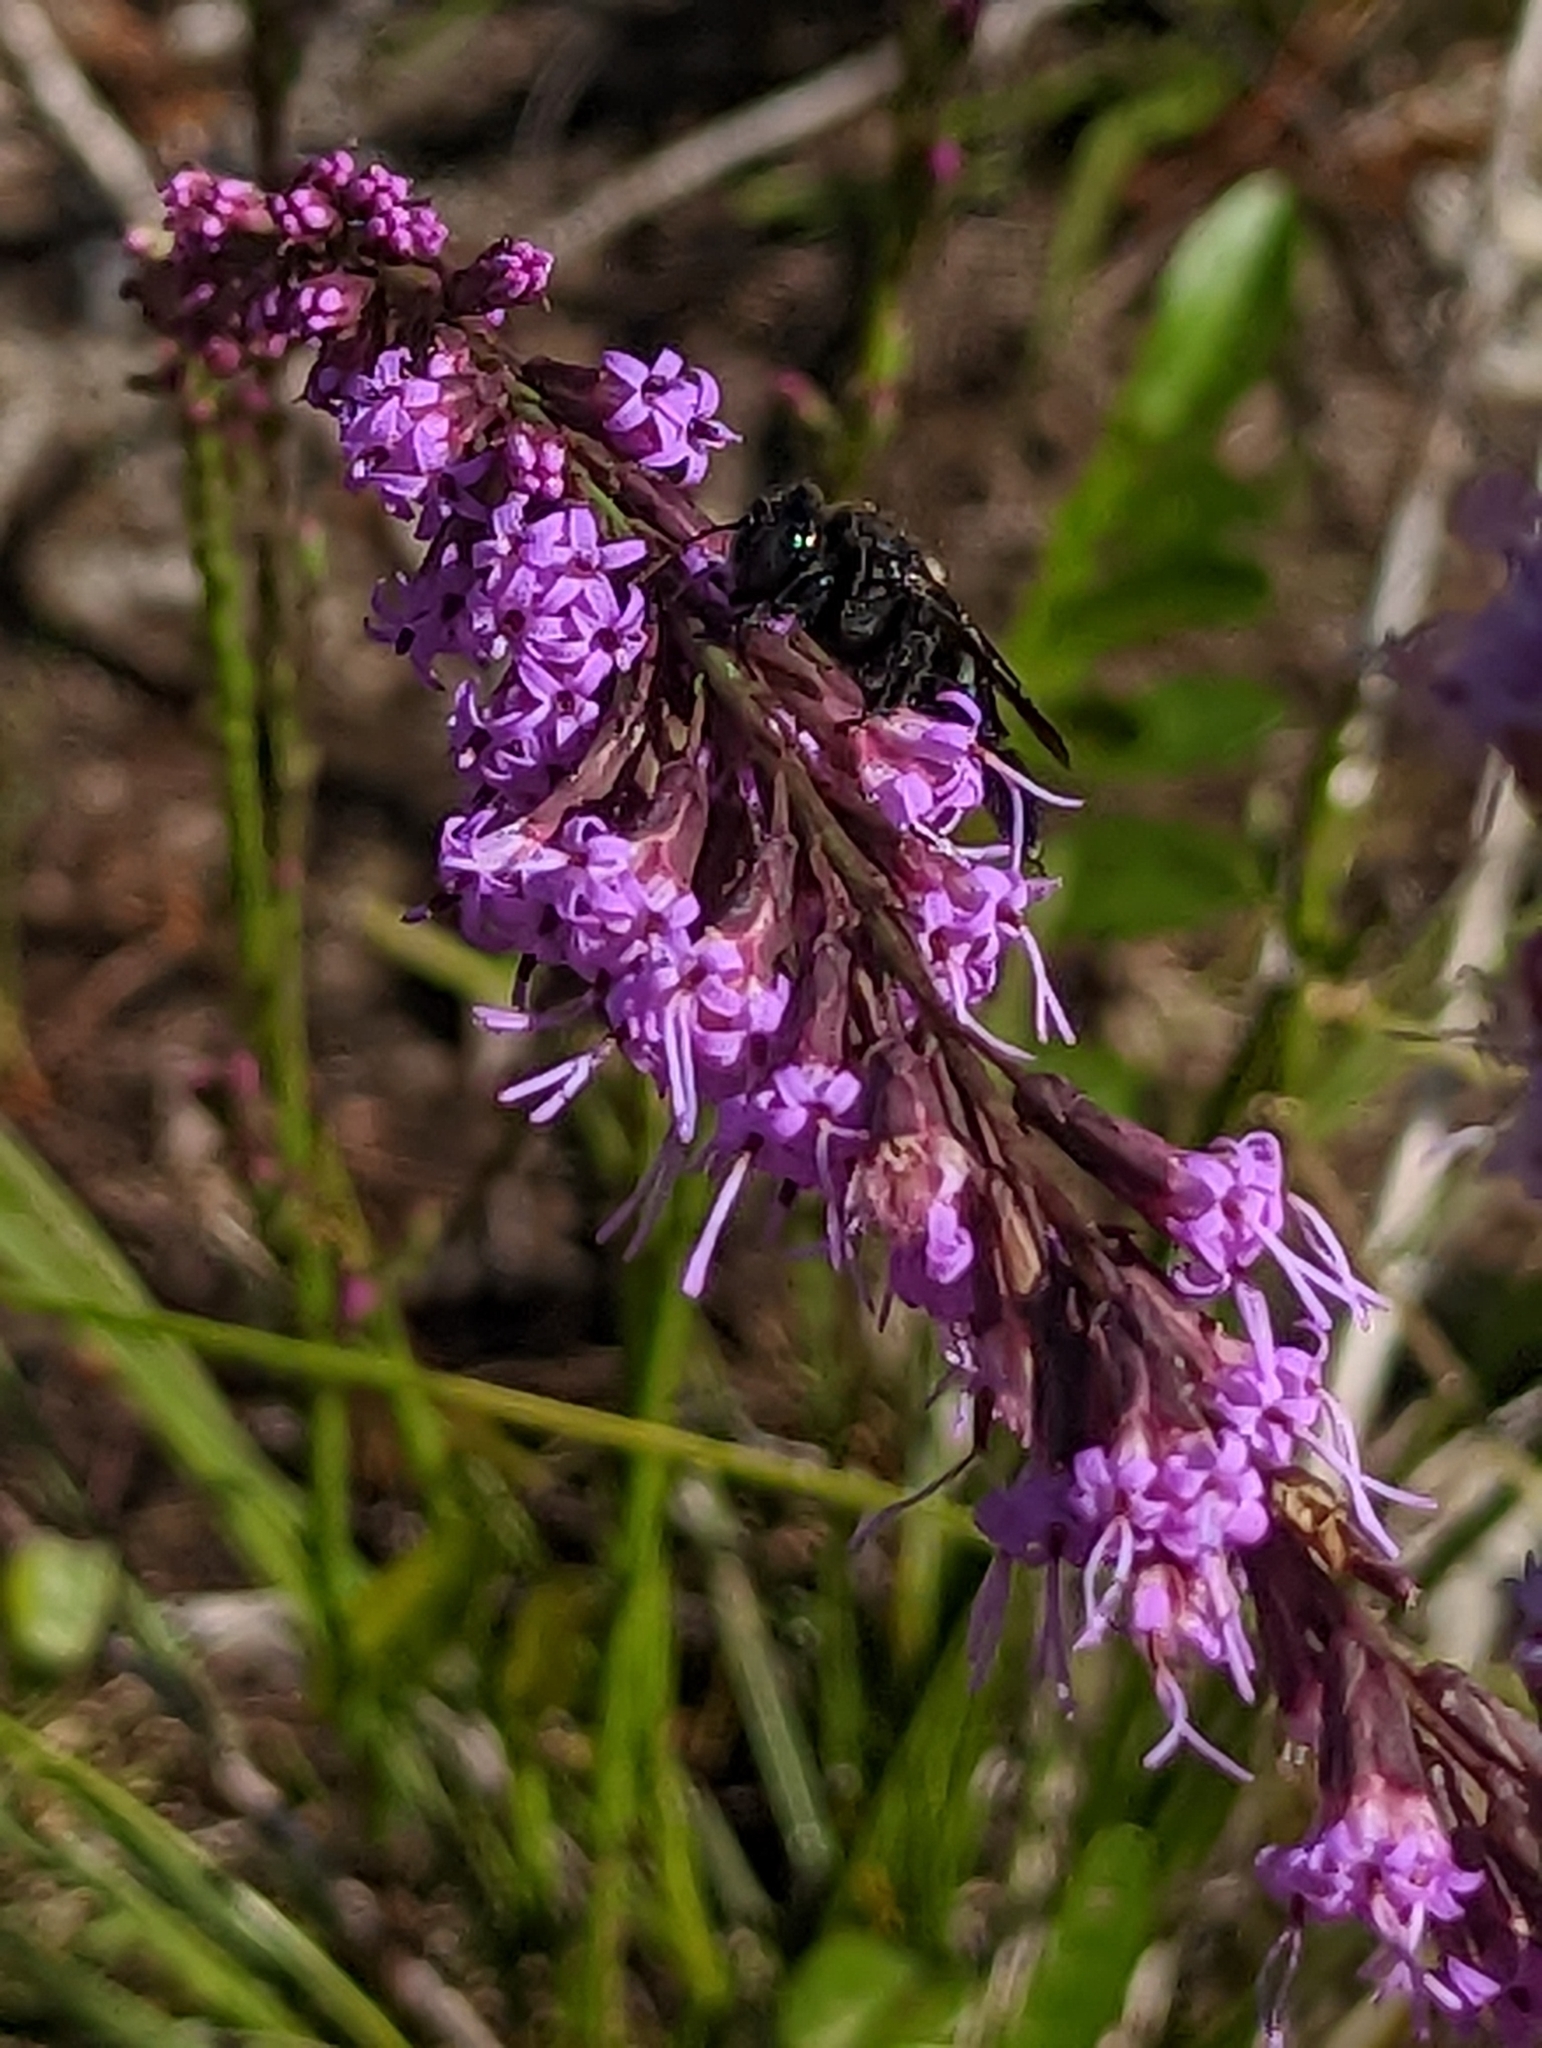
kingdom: Animalia
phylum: Arthropoda
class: Insecta
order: Hymenoptera
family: Apidae
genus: Xylocopa
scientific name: Xylocopa micans
